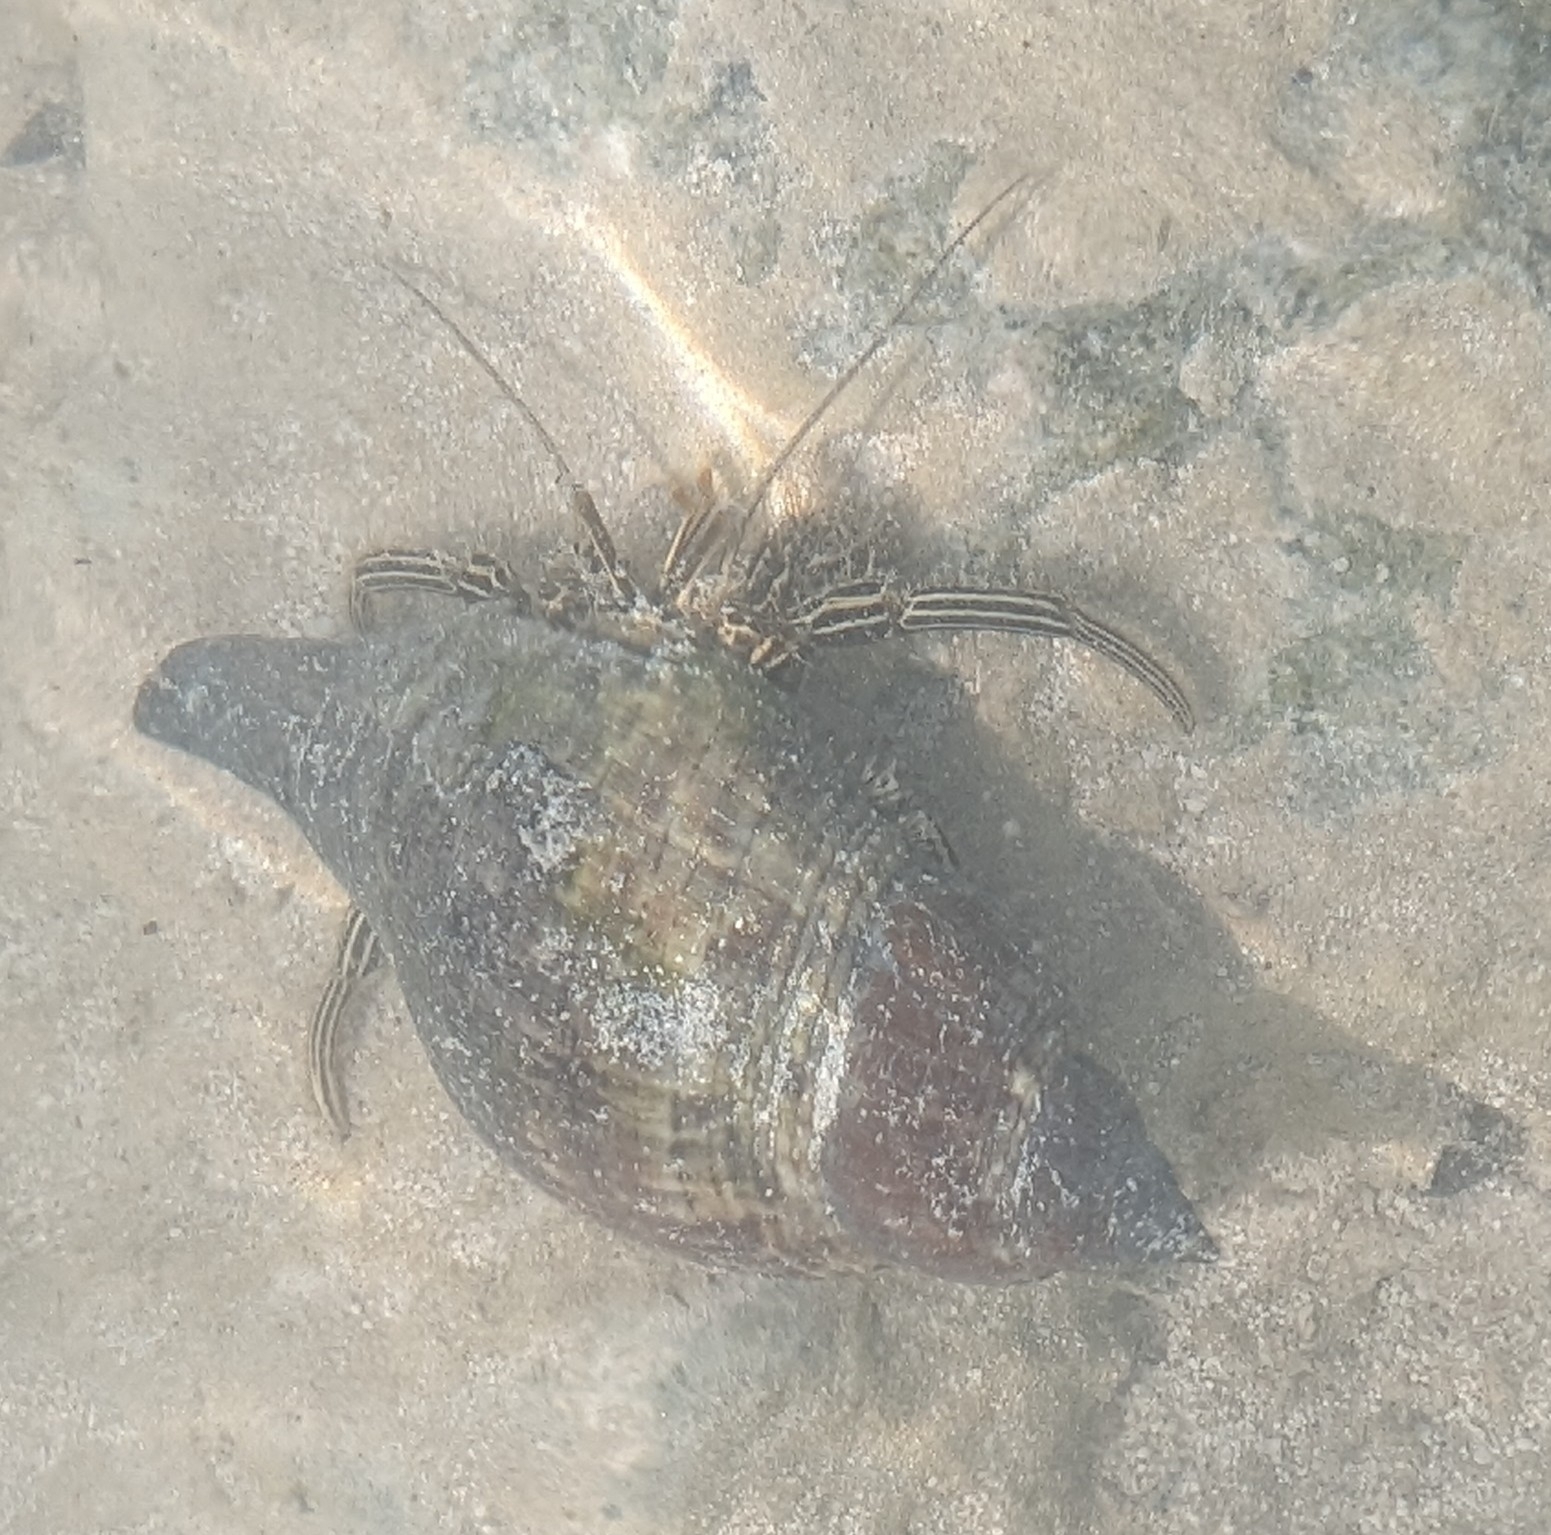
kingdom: Animalia
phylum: Arthropoda
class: Malacostraca
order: Decapoda
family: Diogenidae
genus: Clibanarius
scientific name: Clibanarius vittatus
